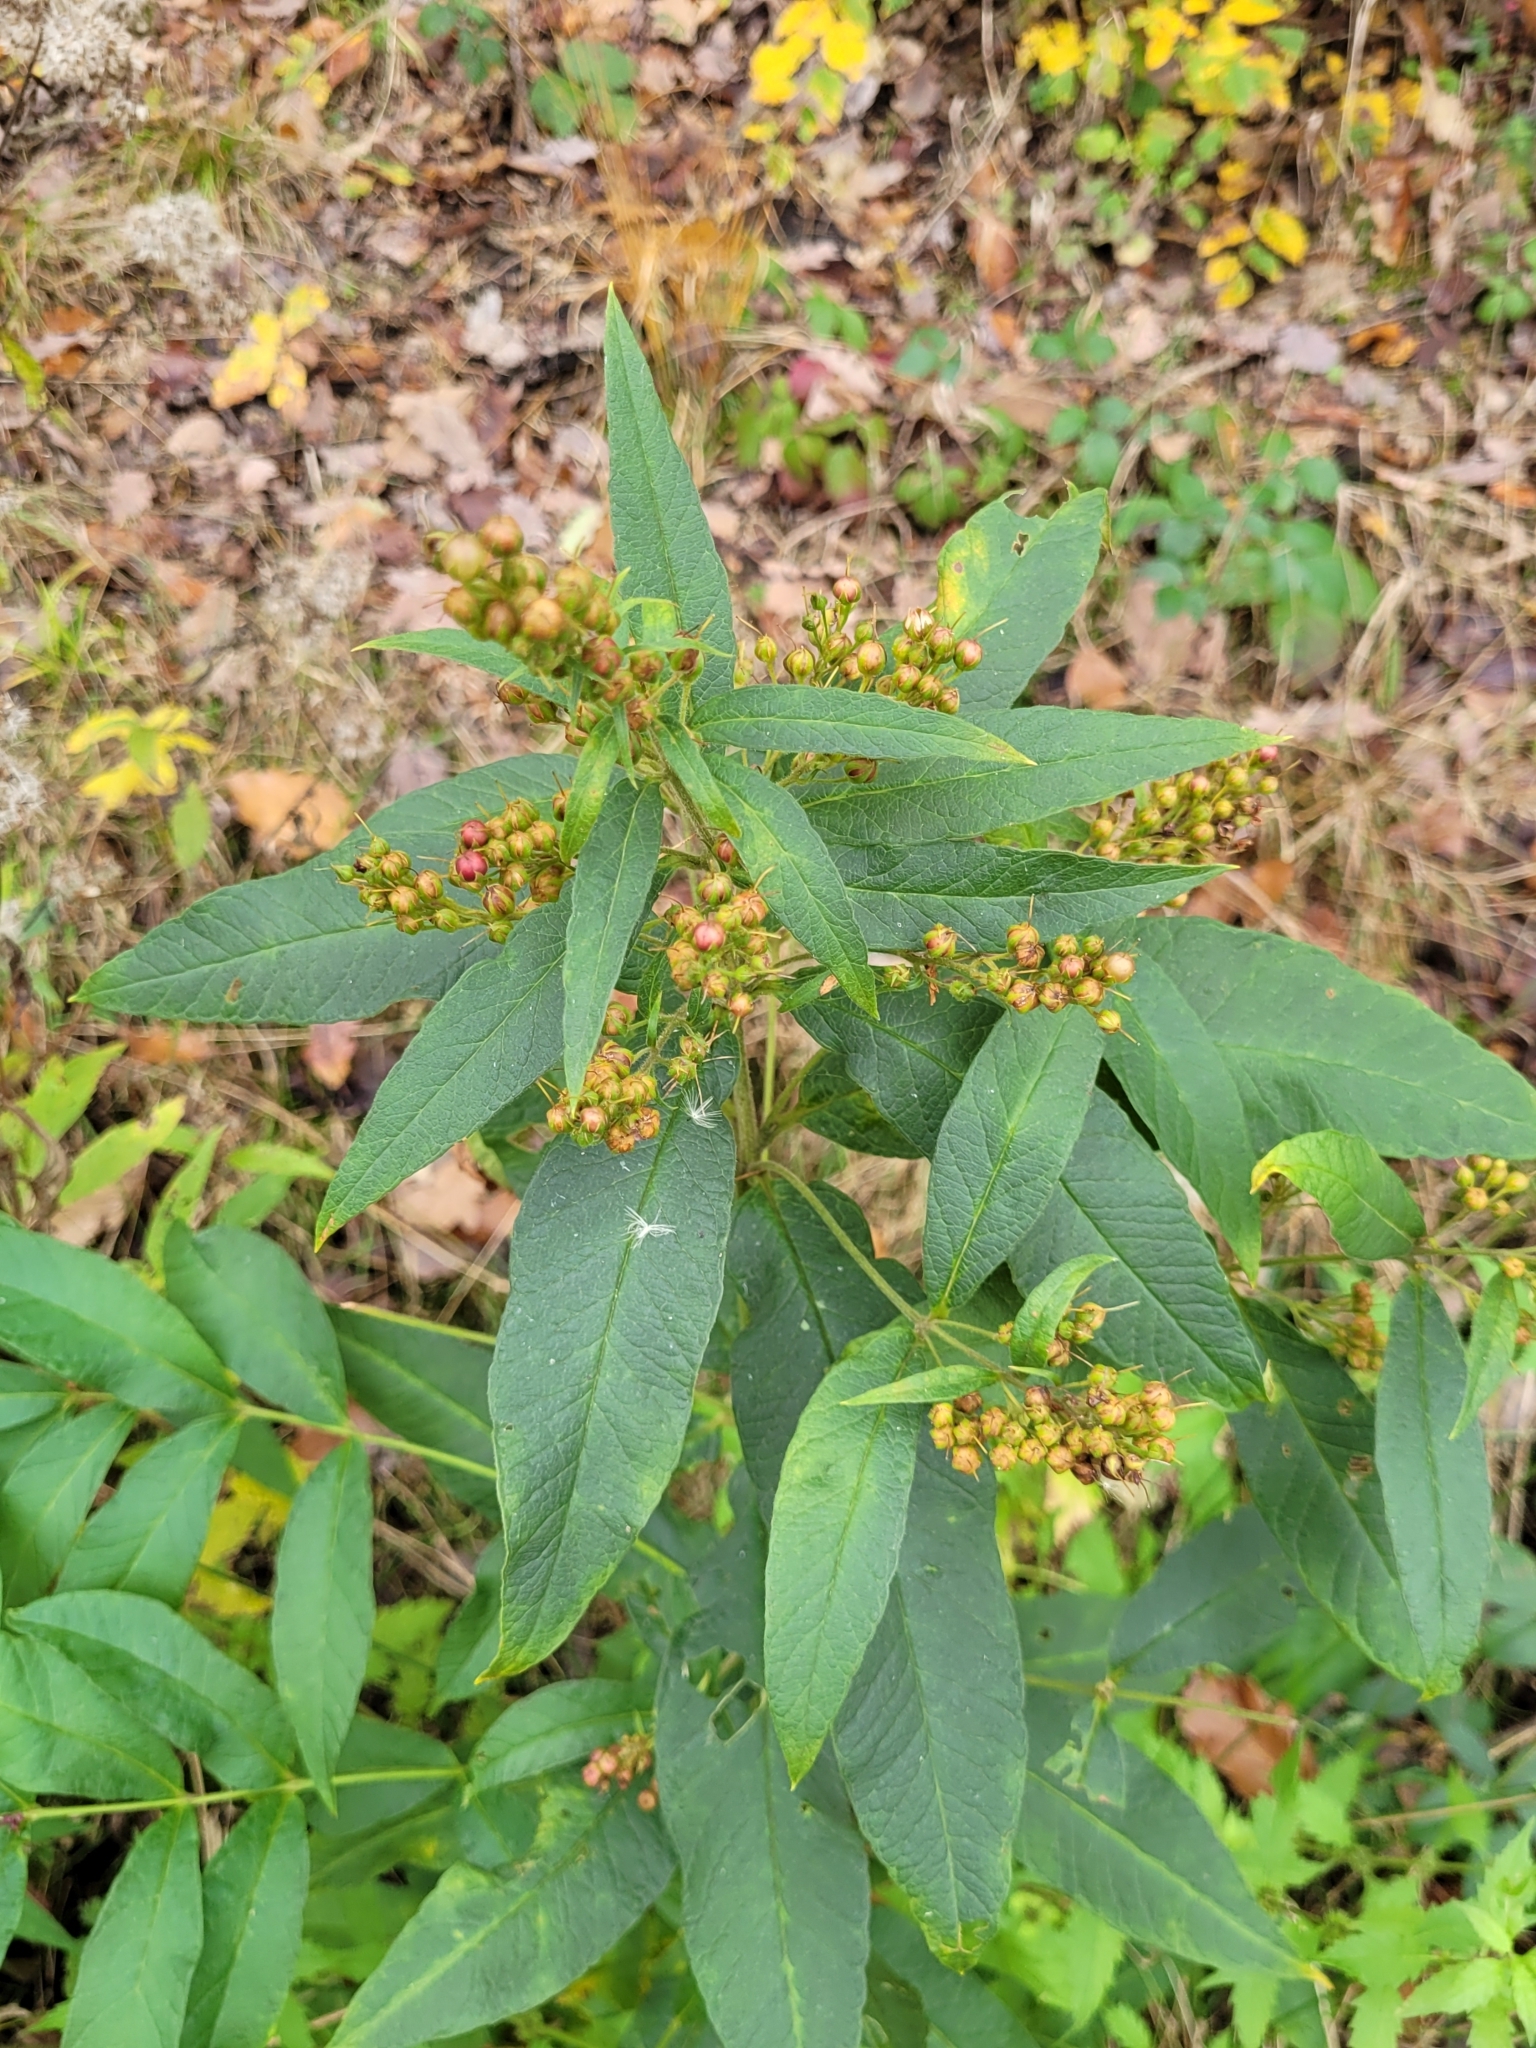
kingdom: Plantae
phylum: Tracheophyta
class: Magnoliopsida
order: Ericales
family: Primulaceae
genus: Lysimachia
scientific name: Lysimachia vulgaris
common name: Yellow loosestrife
